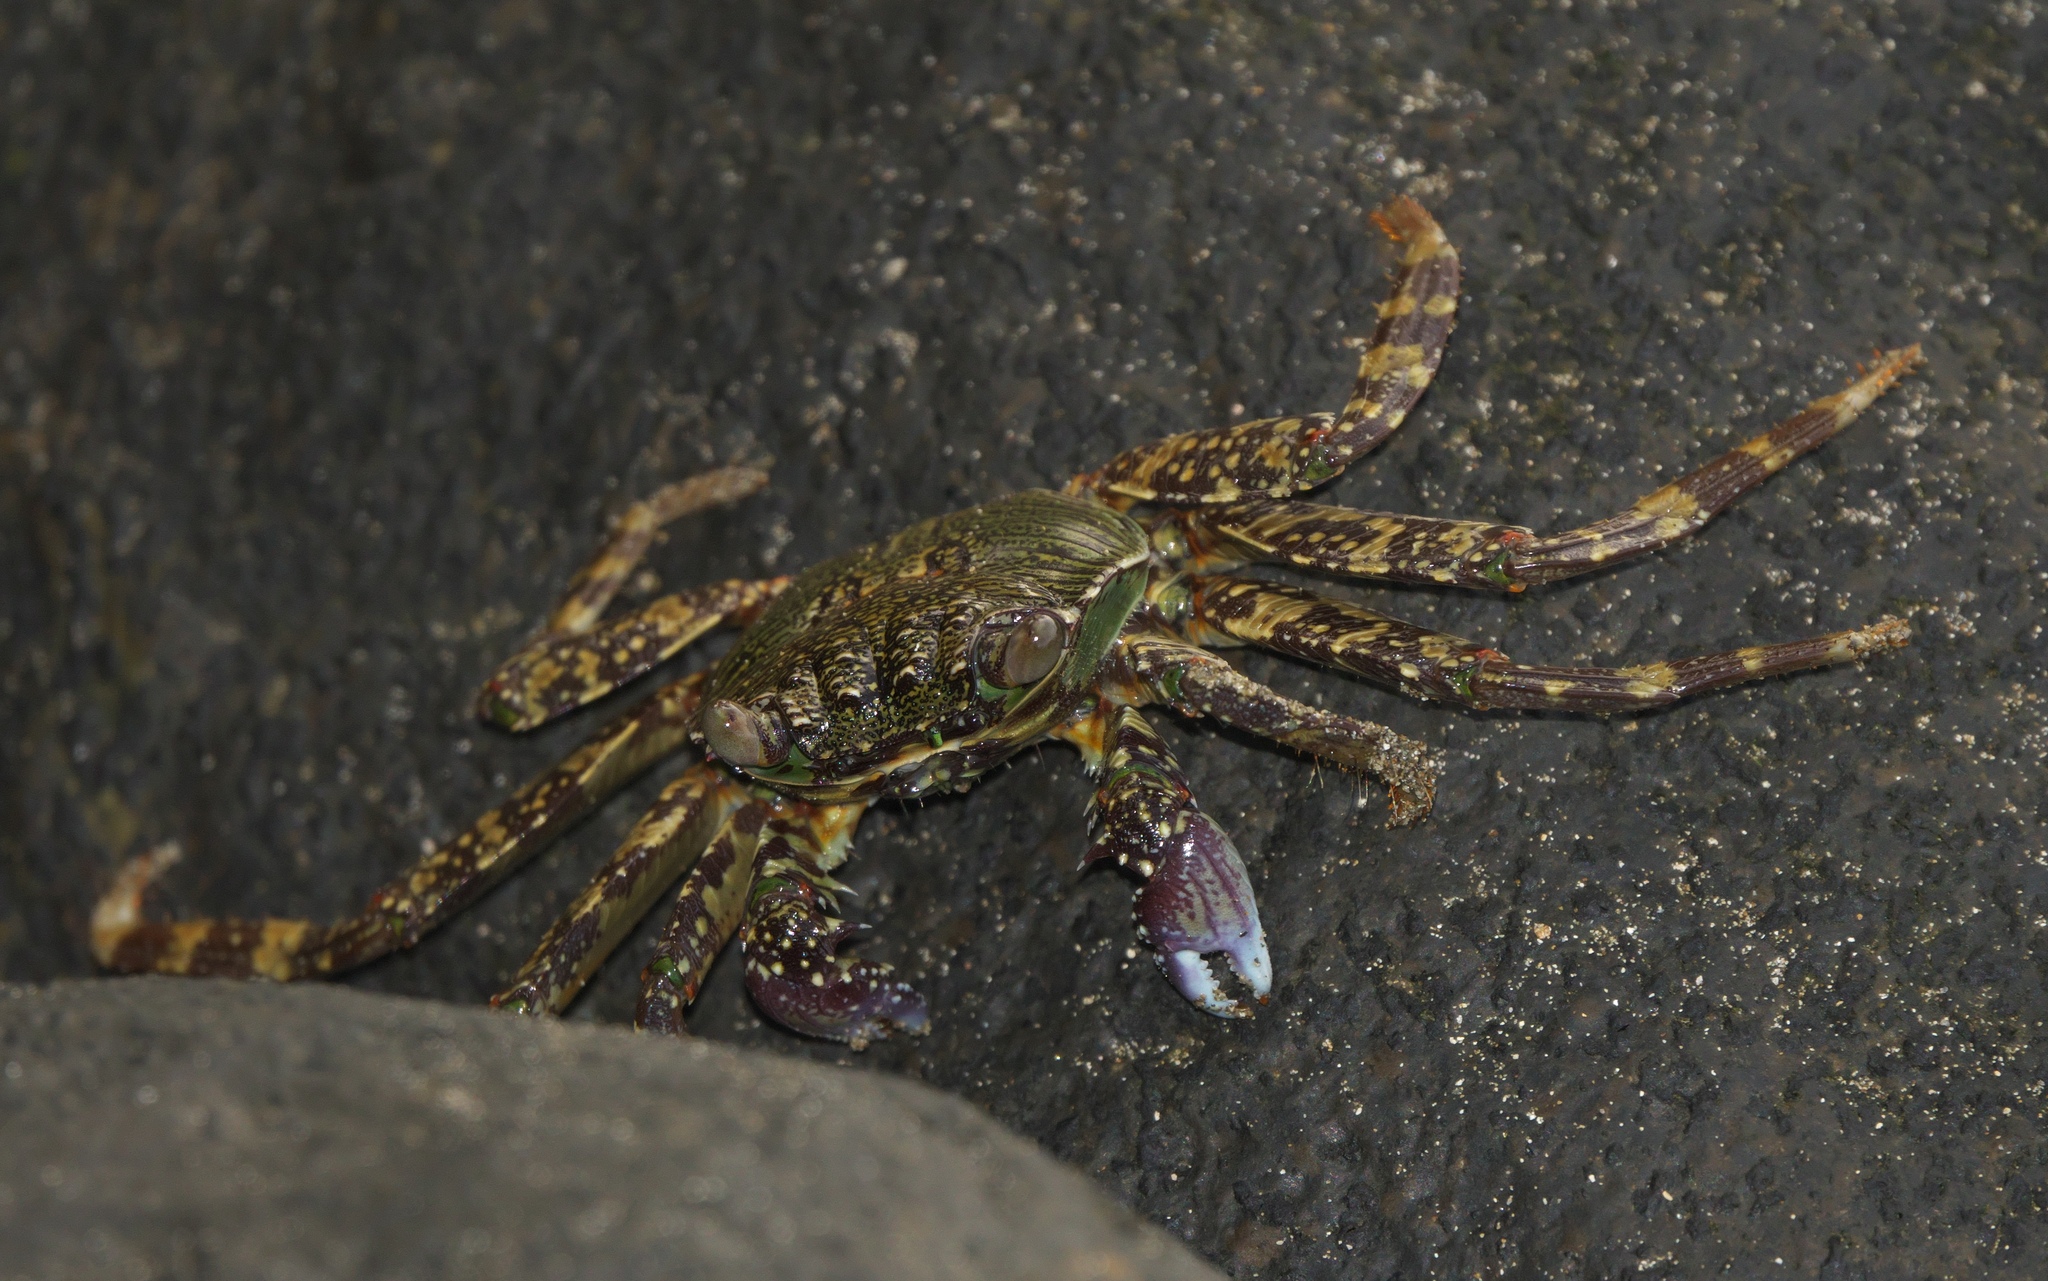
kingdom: Animalia
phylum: Arthropoda
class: Malacostraca
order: Decapoda
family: Grapsidae
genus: Grapsus
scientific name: Grapsus albolineatus
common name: Mottled lightfoot crab
